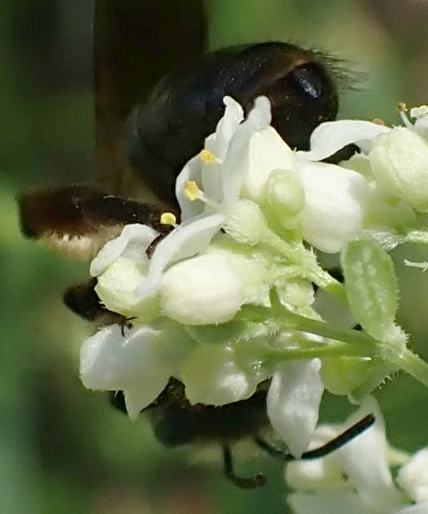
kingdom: Animalia
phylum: Arthropoda
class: Insecta
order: Hymenoptera
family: Andrenidae
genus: Andrena
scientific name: Andrena dunningi
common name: Dunning's miner
